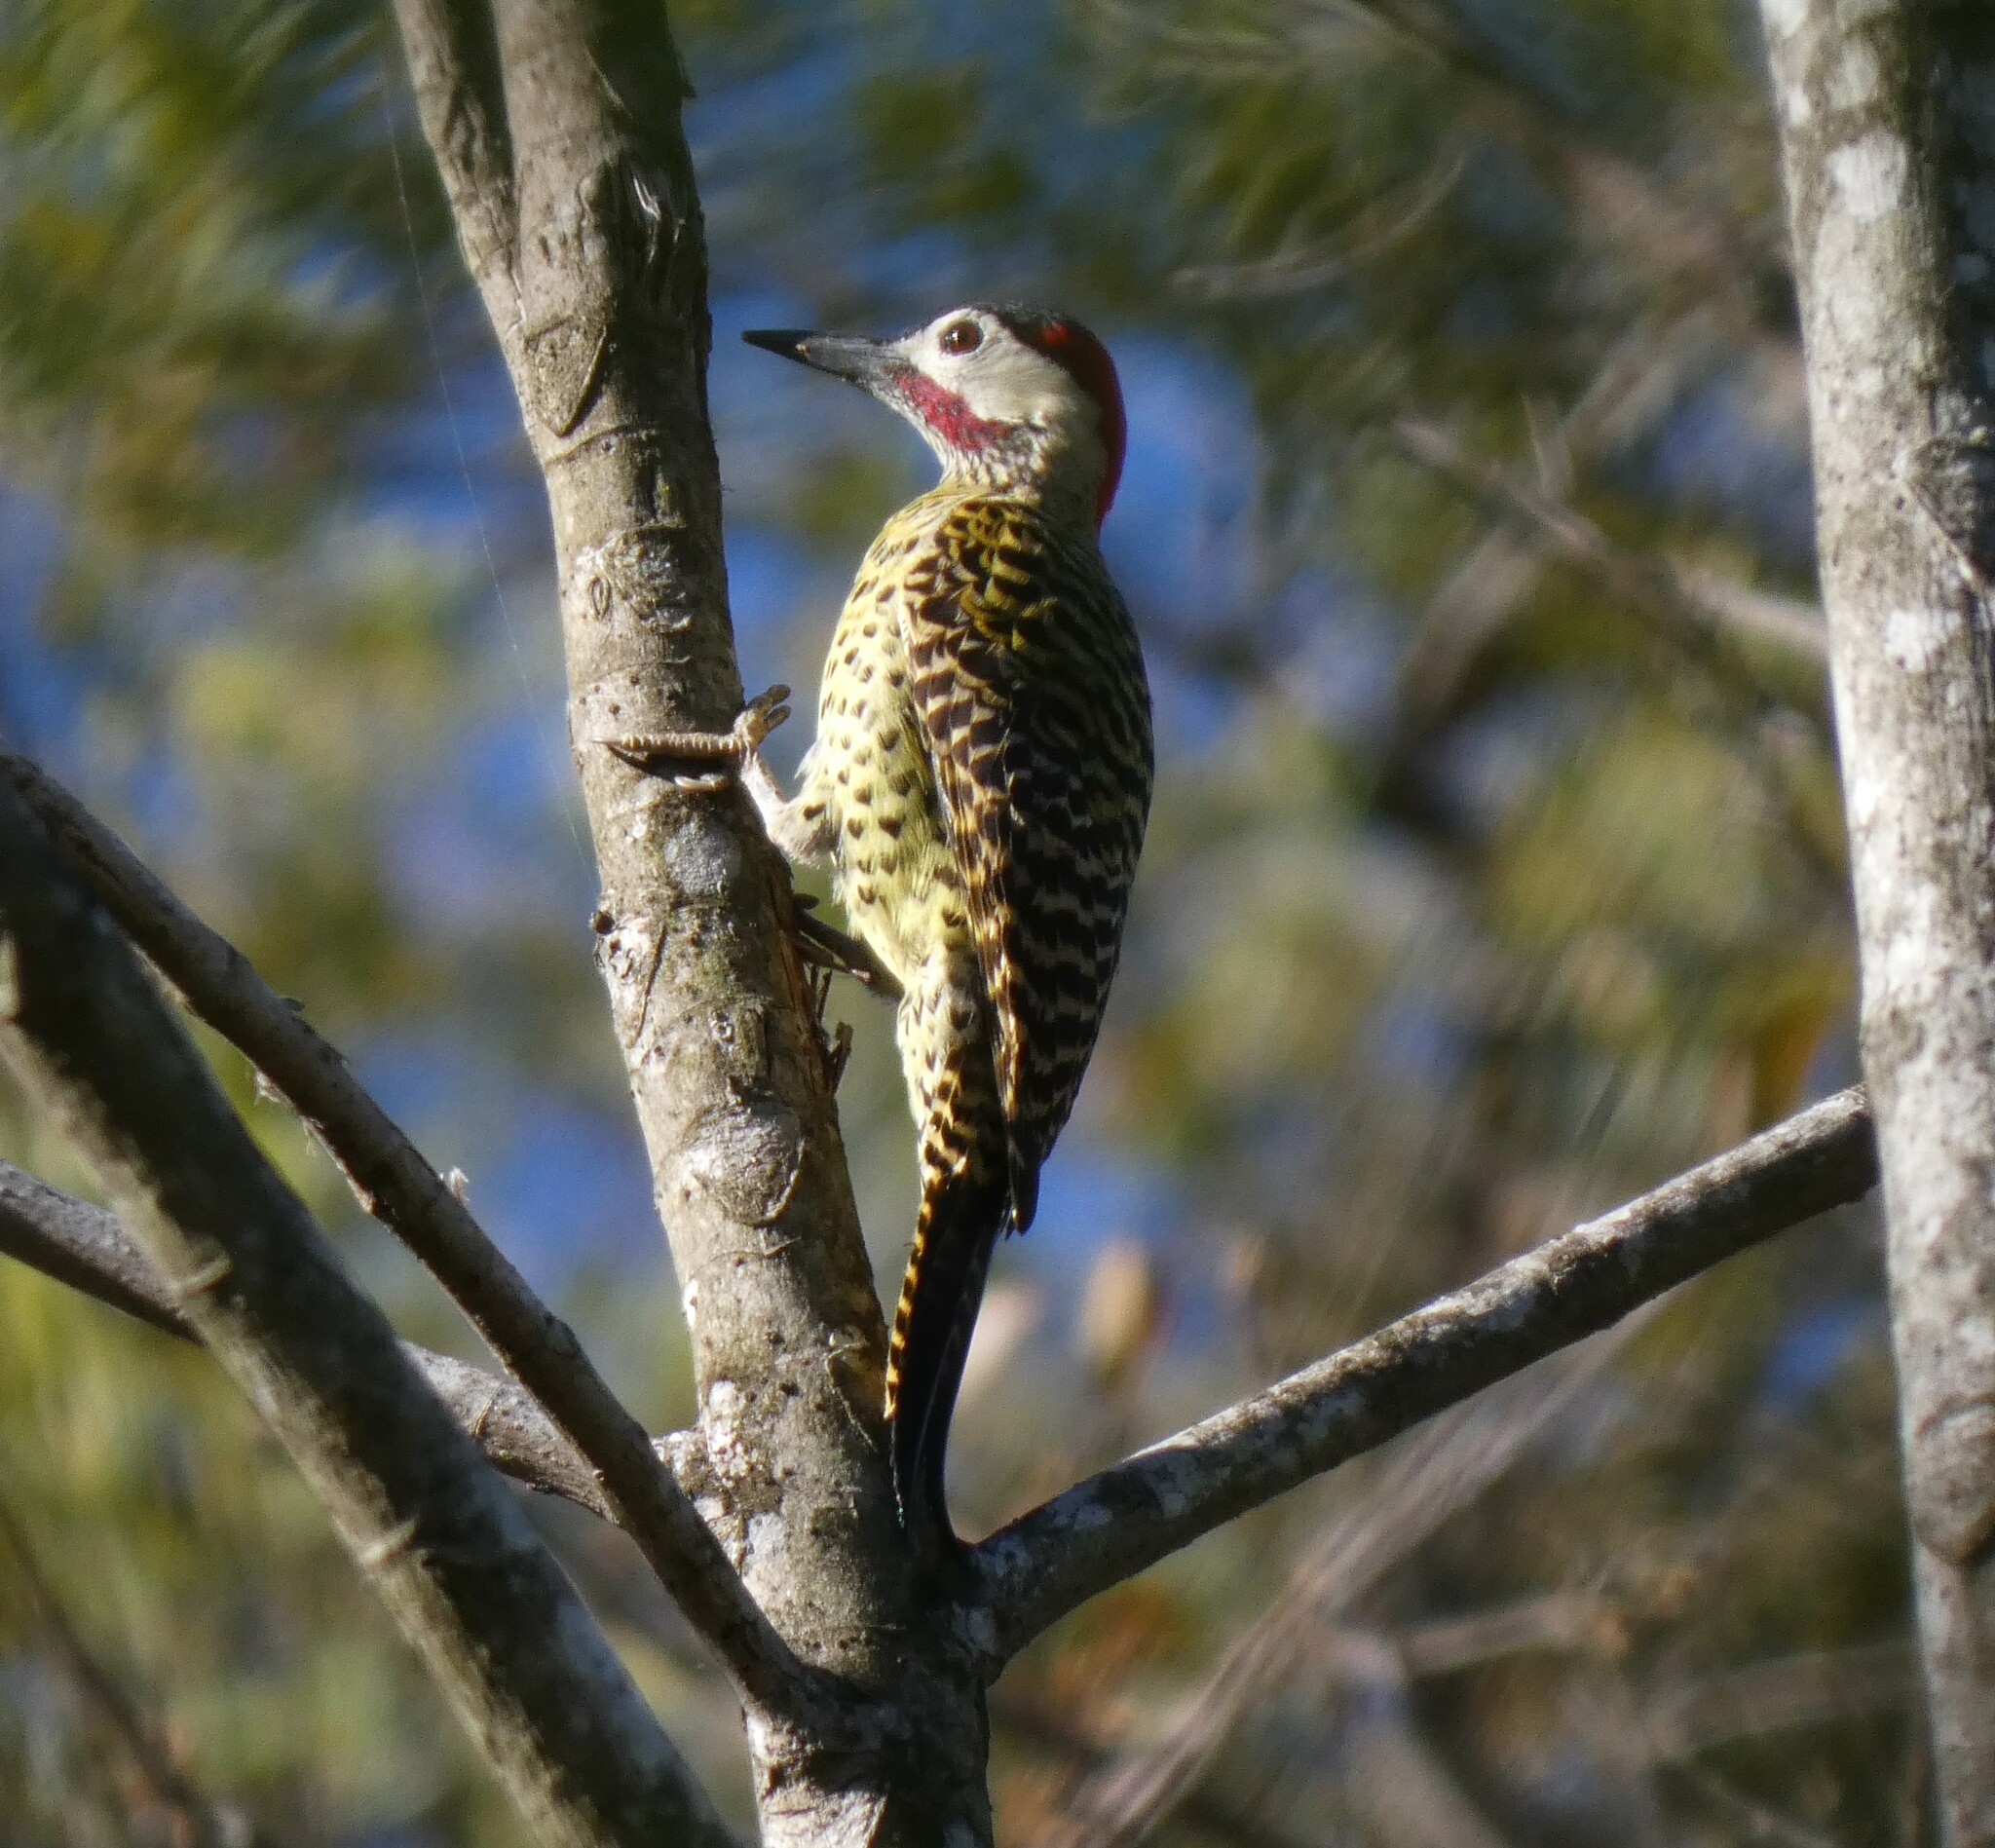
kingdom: Animalia
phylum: Chordata
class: Aves
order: Piciformes
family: Picidae
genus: Colaptes
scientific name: Colaptes melanochloros
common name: Green-barred woodpecker
